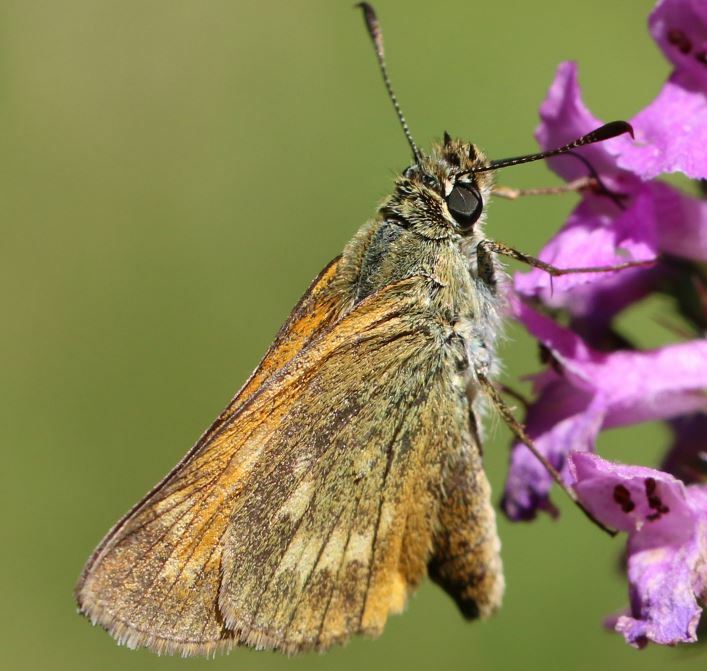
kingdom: Animalia
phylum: Arthropoda
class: Insecta
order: Lepidoptera
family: Hesperiidae
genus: Ochlodes
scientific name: Ochlodes venata
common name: Large skipper
